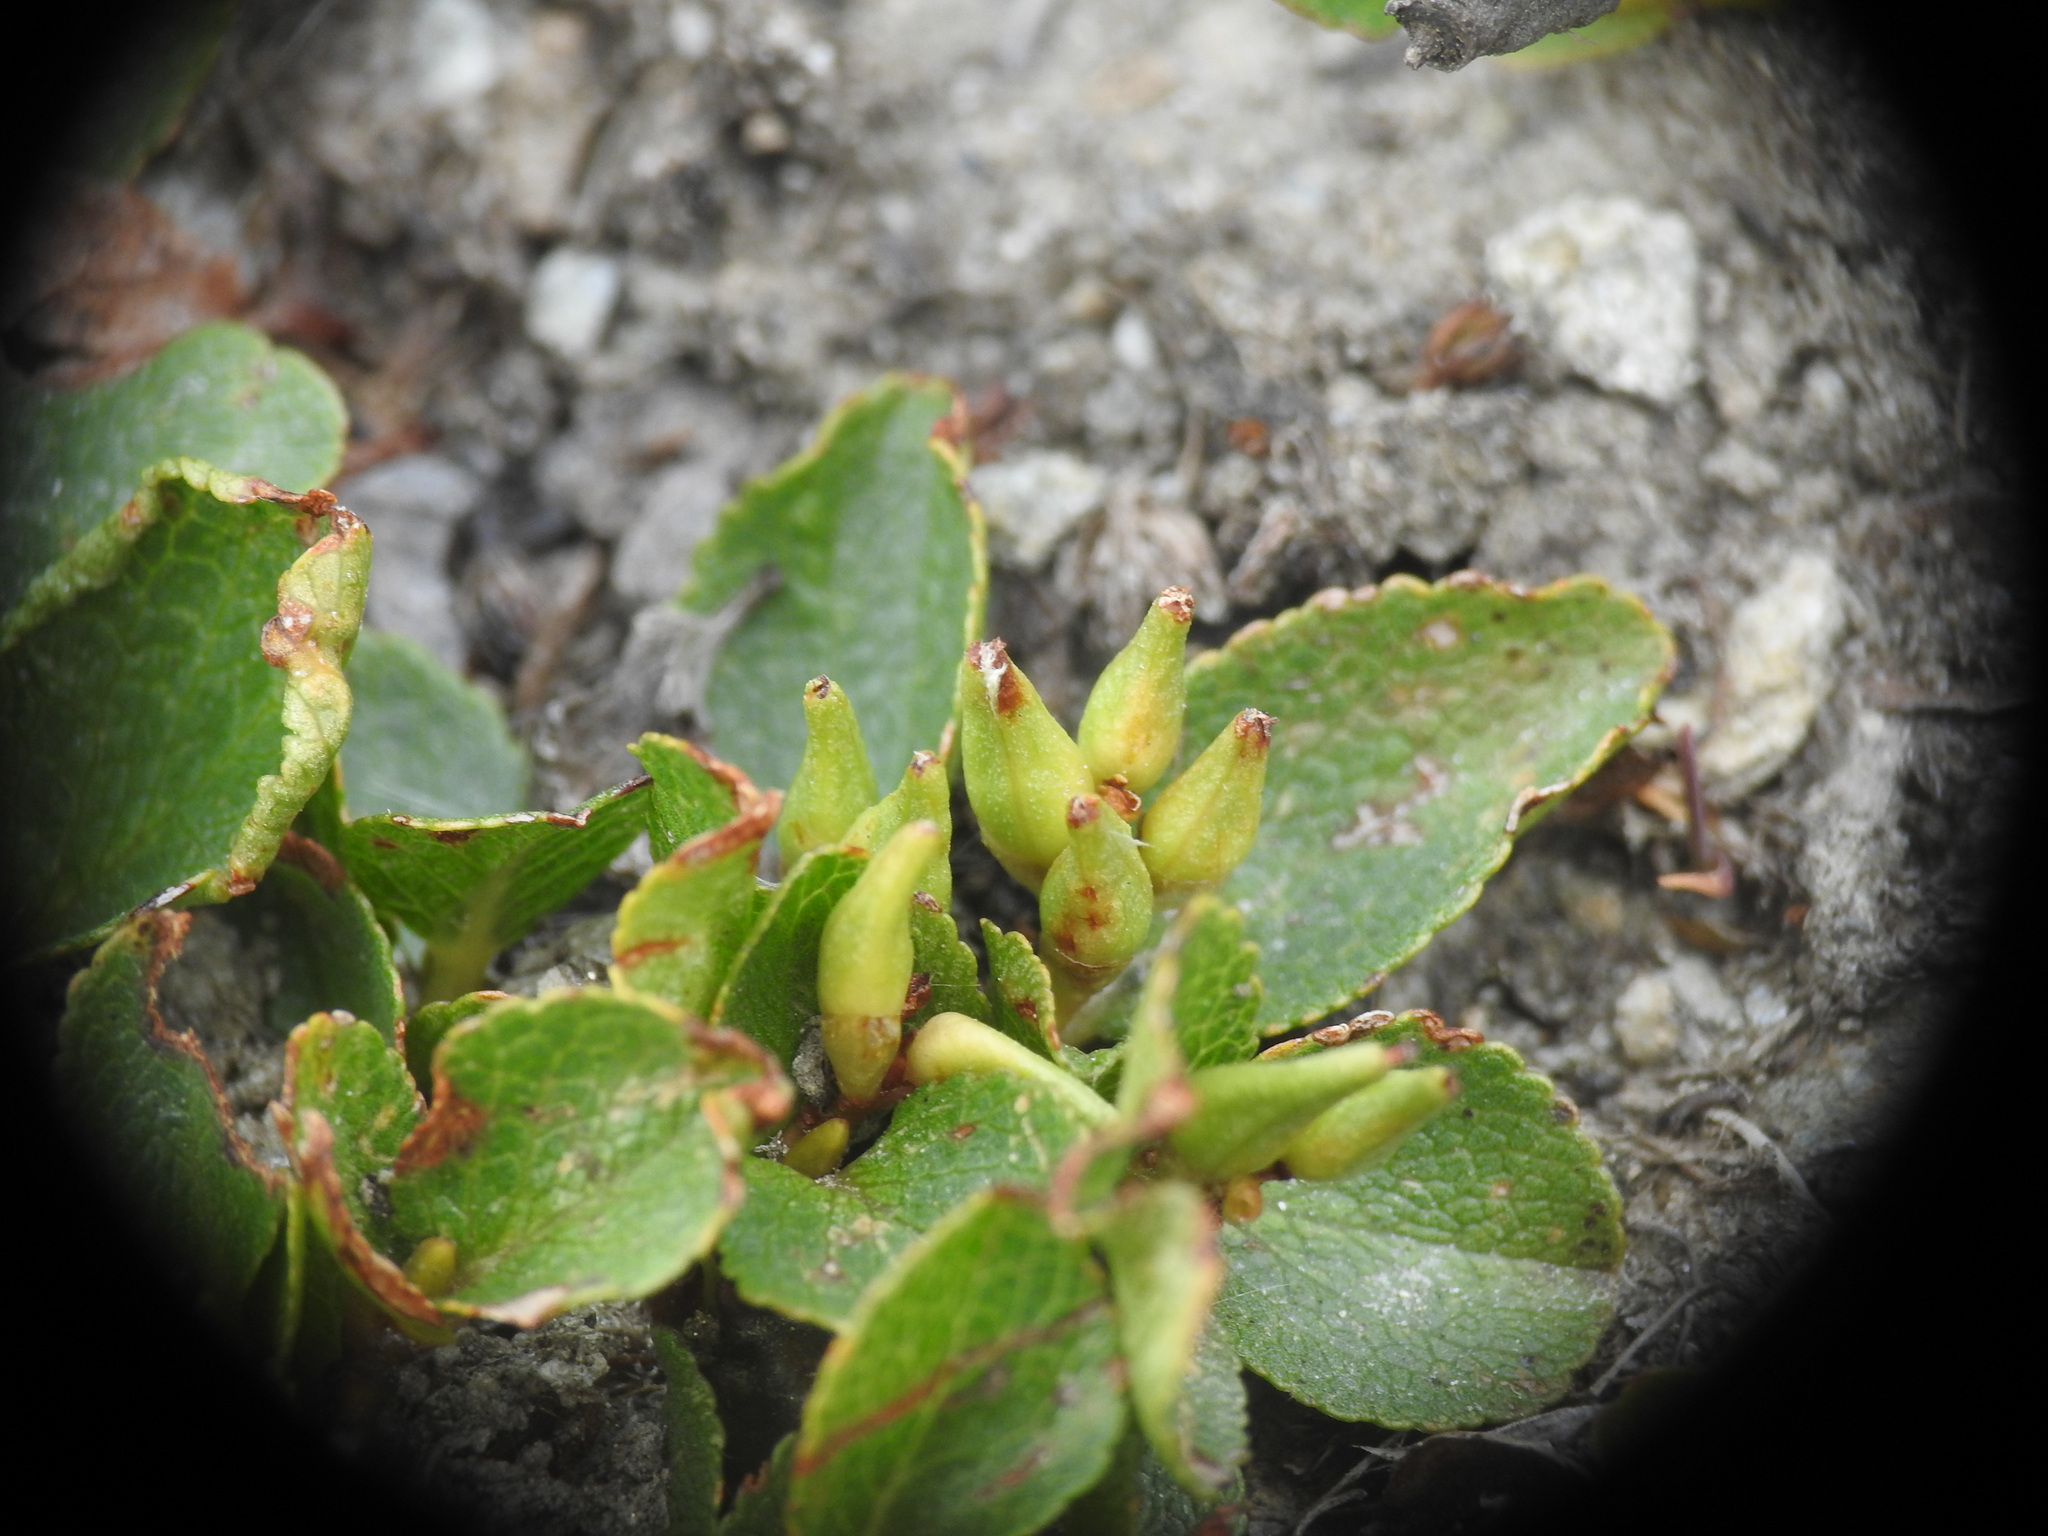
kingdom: Plantae
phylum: Tracheophyta
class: Magnoliopsida
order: Malpighiales
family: Salicaceae
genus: Salix
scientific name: Salix herbacea
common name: Dwarf willow
